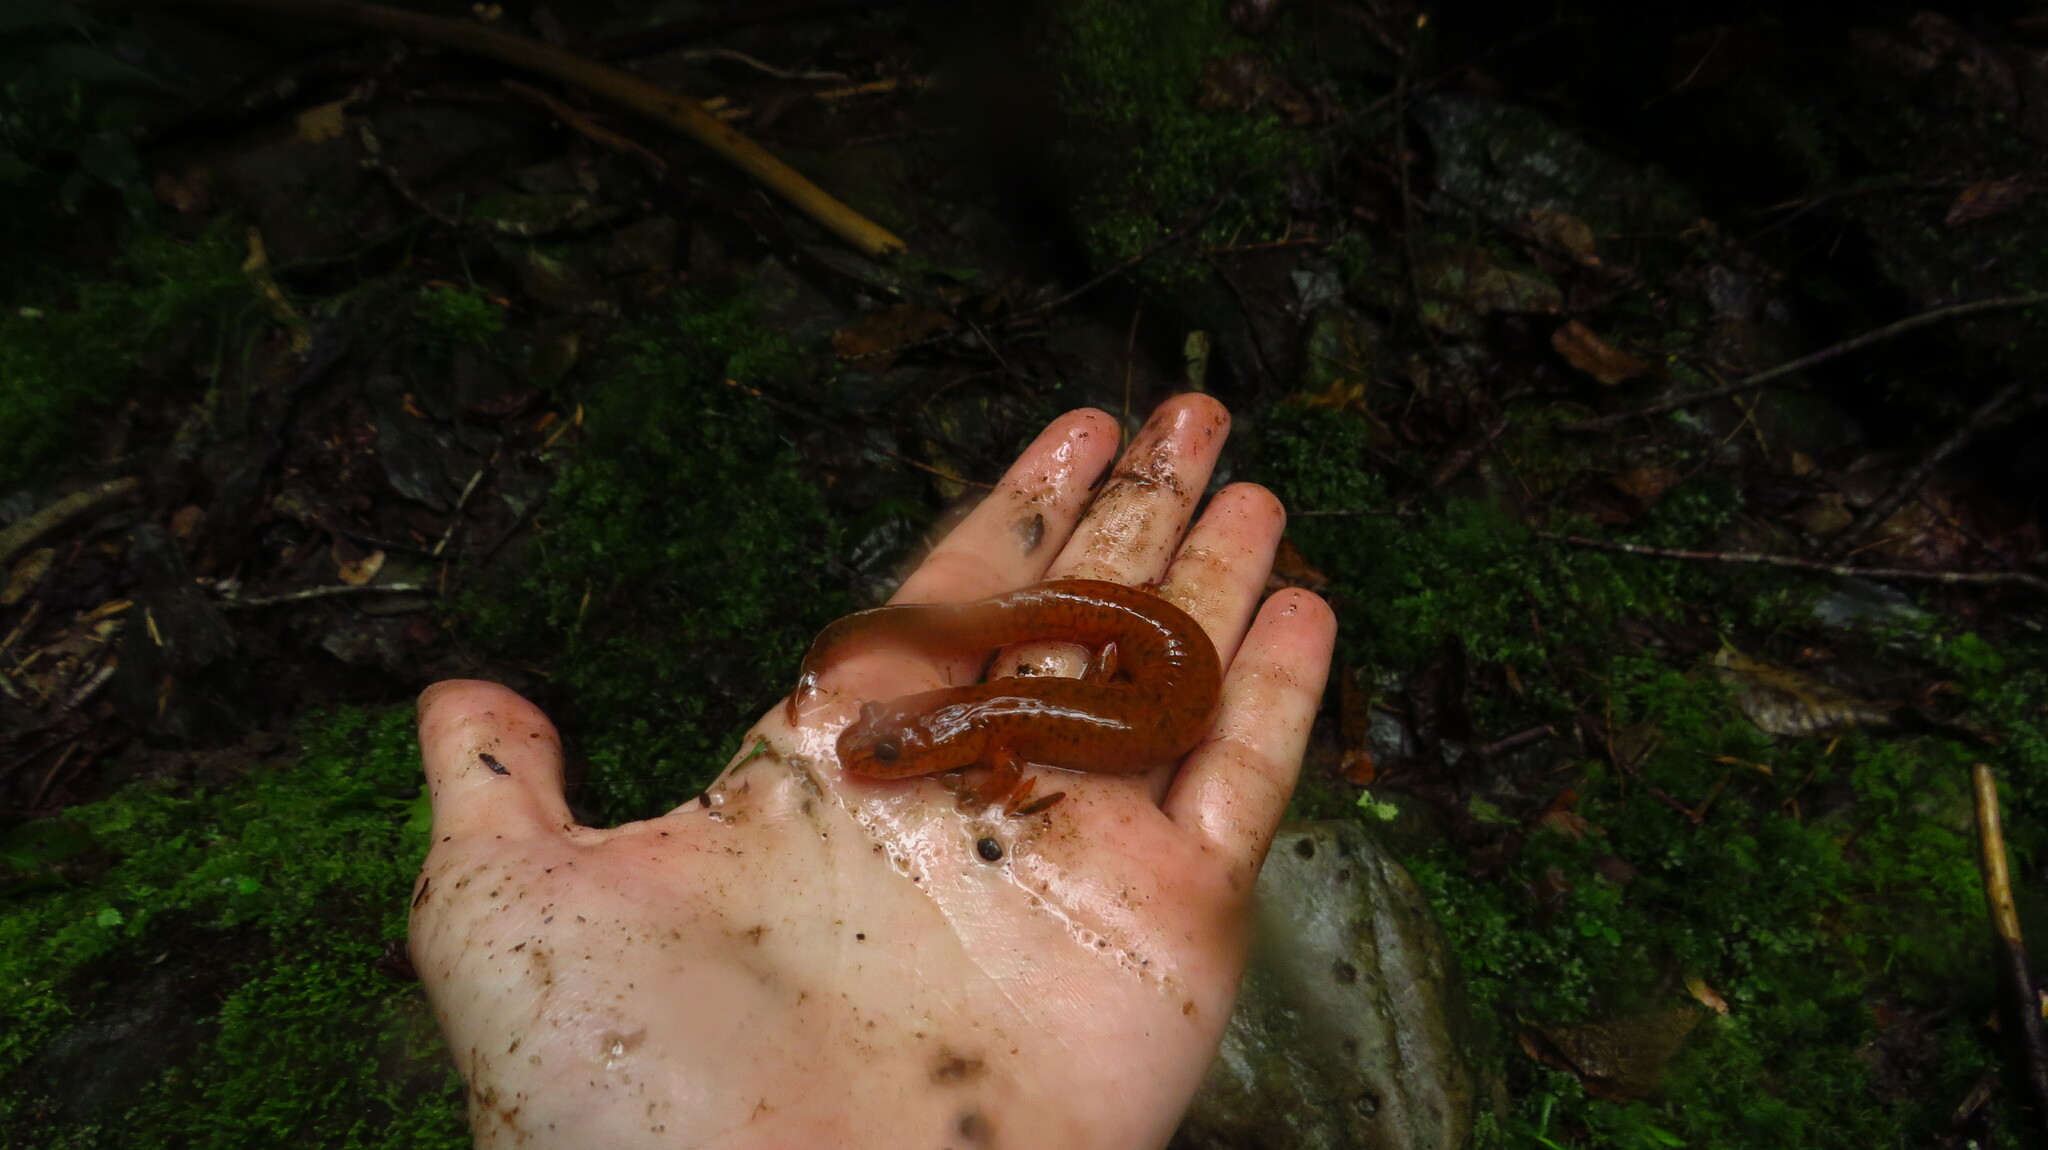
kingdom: Animalia
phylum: Chordata
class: Amphibia
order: Caudata
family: Plethodontidae
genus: Gyrinophilus
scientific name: Gyrinophilus porphyriticus
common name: Spring salamander
